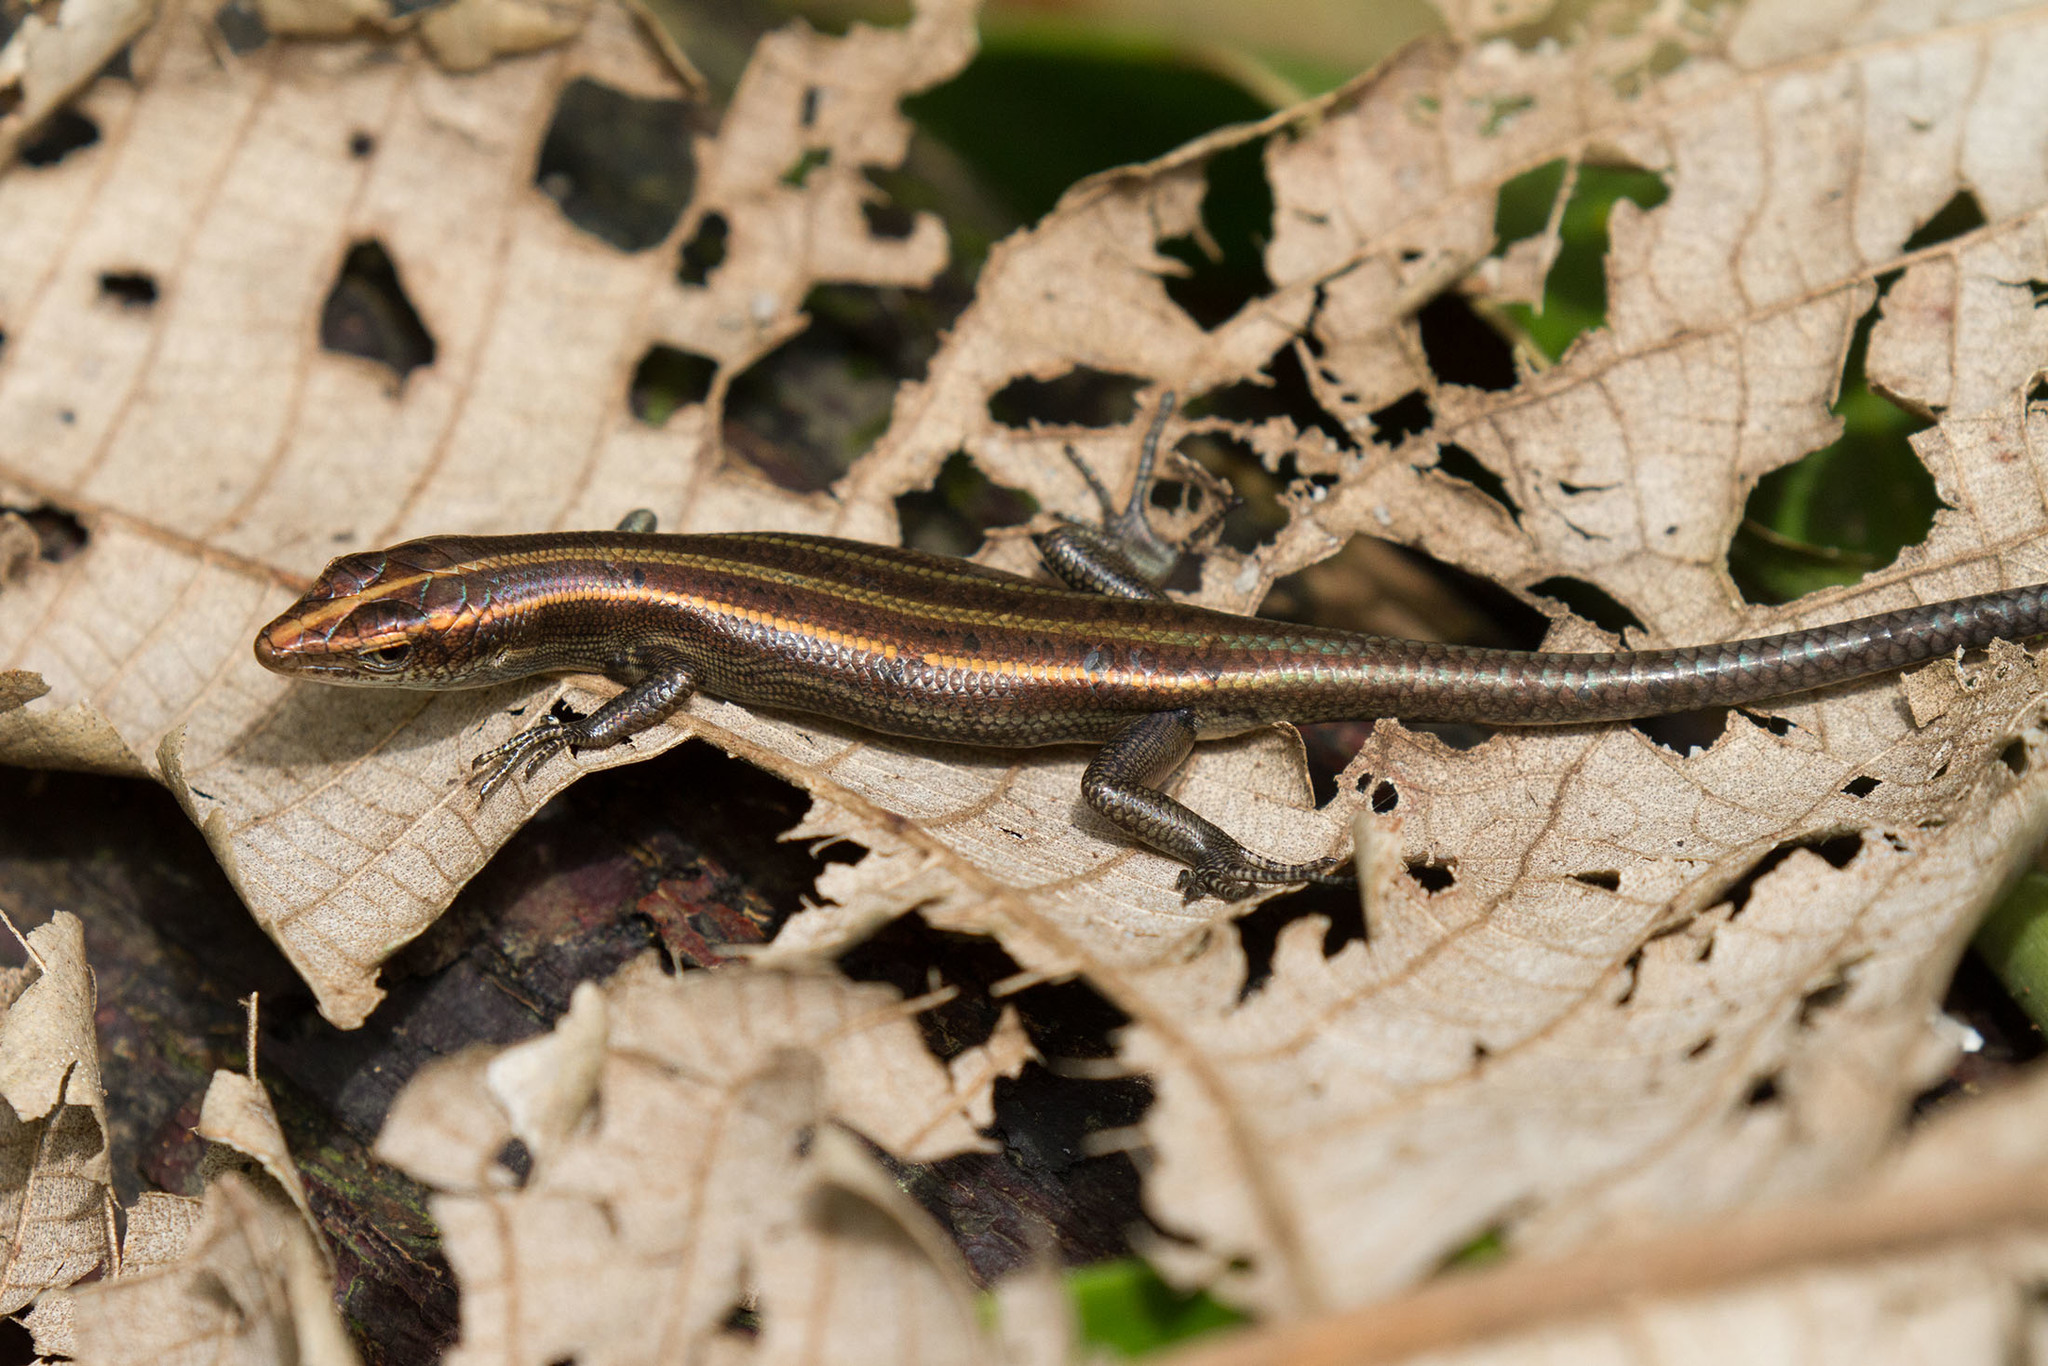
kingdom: Animalia
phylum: Chordata
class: Squamata
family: Scincidae
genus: Emoia
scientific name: Emoia caeruleocauda
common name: Pacific bluetail skink
